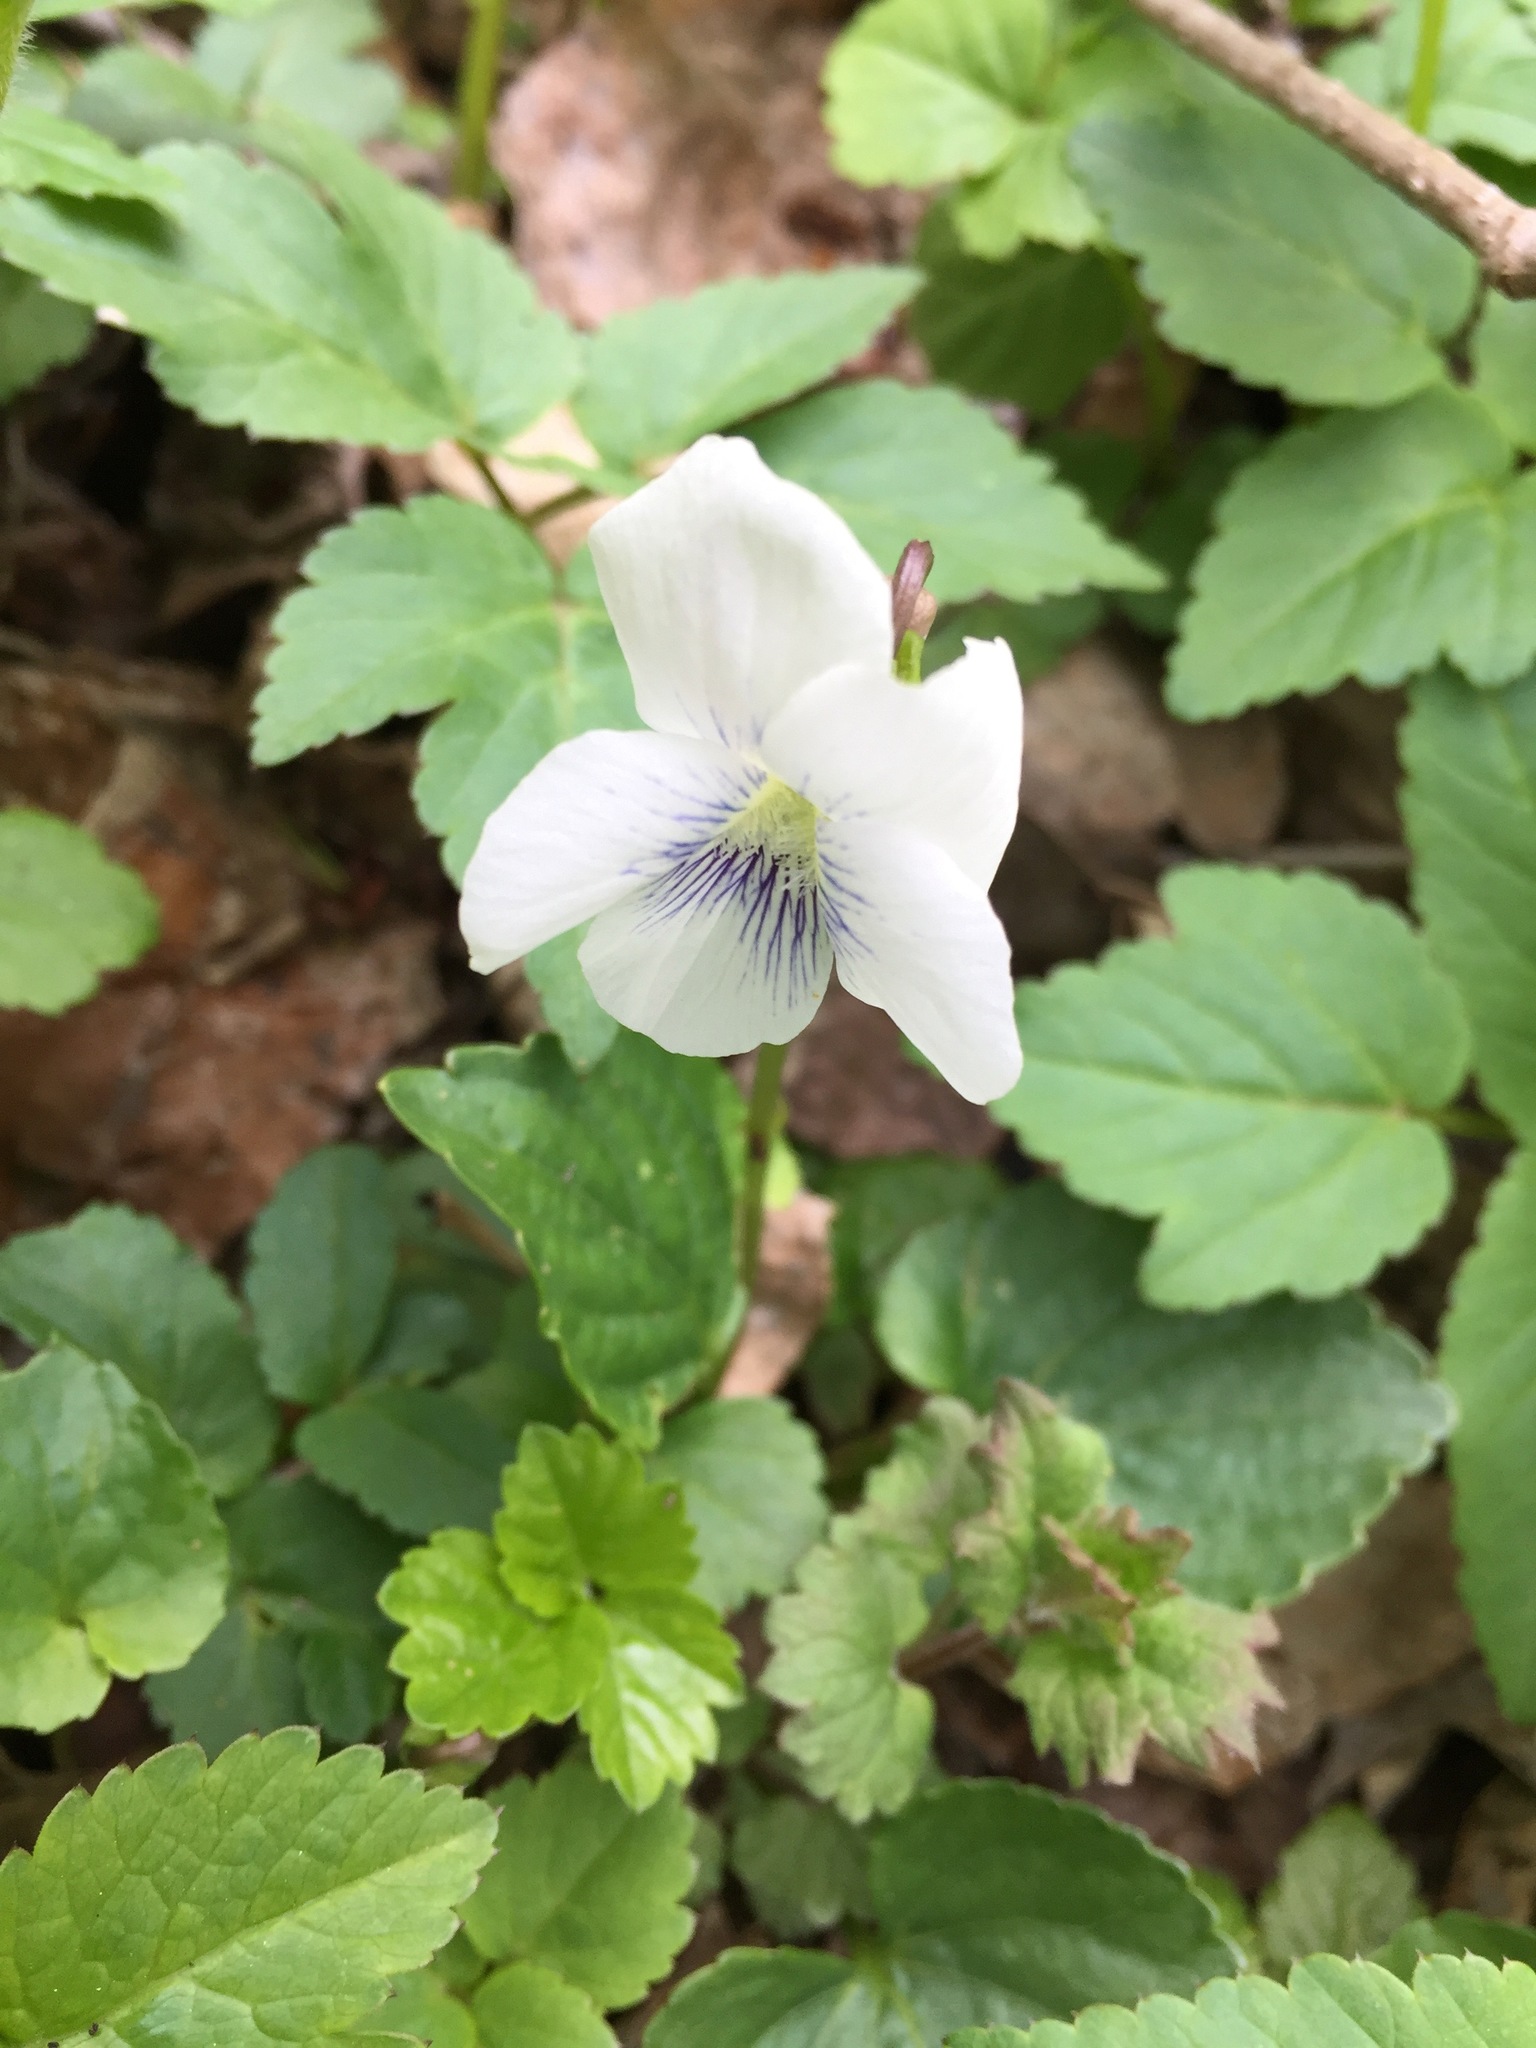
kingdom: Plantae
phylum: Tracheophyta
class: Magnoliopsida
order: Malpighiales
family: Violaceae
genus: Viola
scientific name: Viola sororia
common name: Dooryard violet
